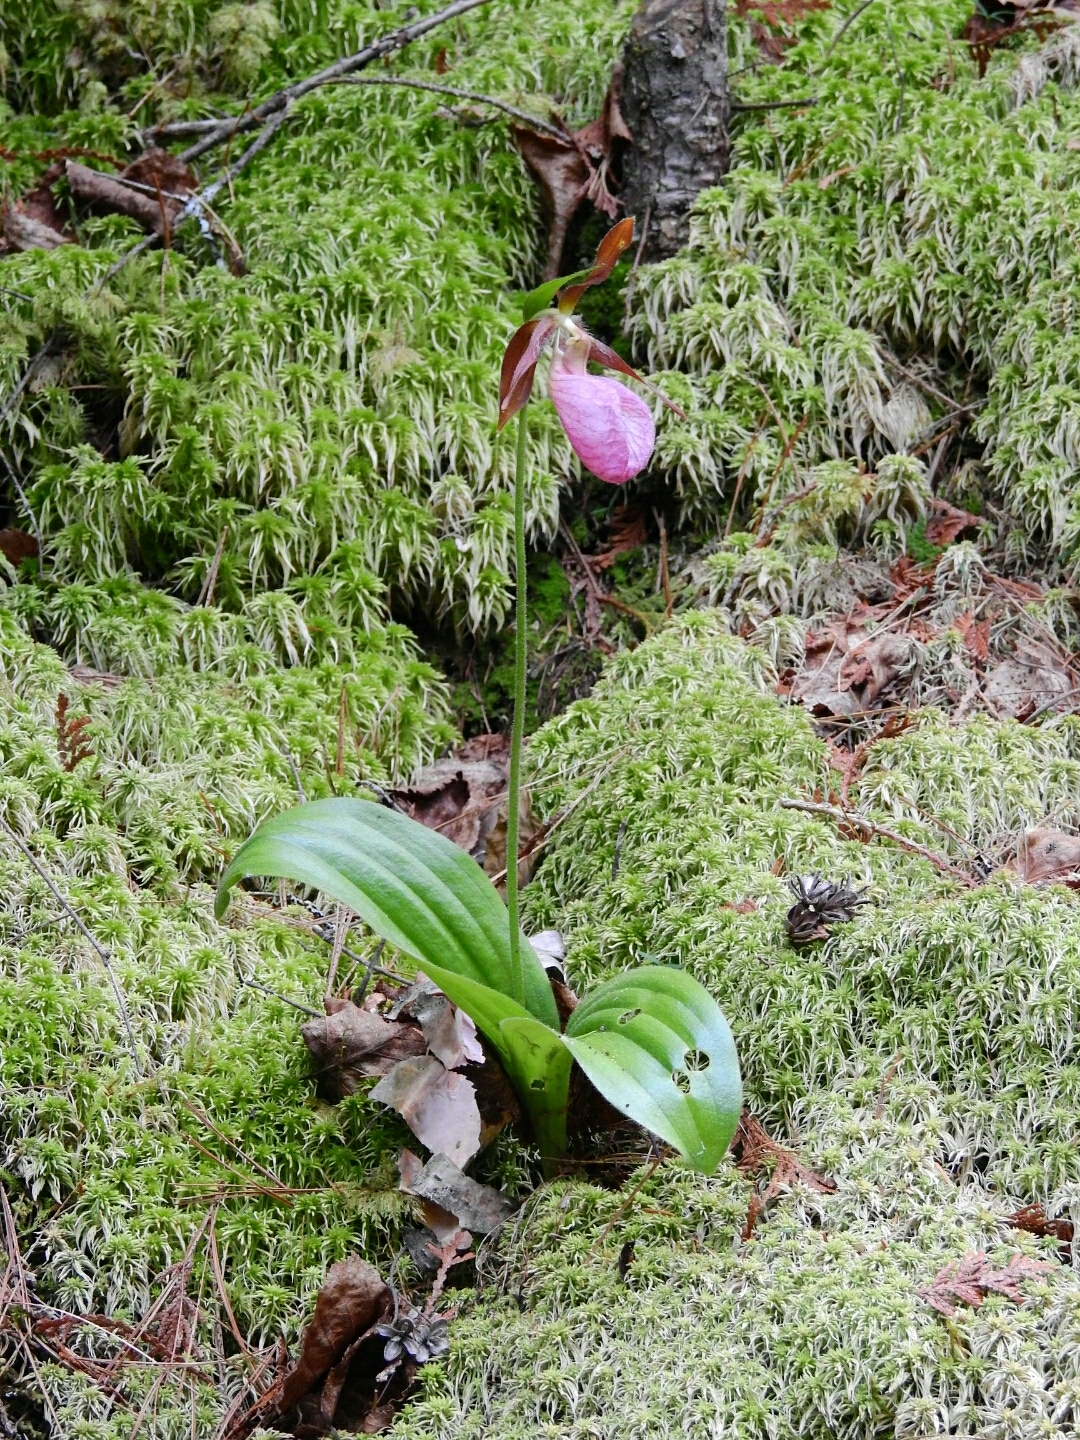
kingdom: Plantae
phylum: Tracheophyta
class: Liliopsida
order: Asparagales
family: Orchidaceae
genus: Cypripedium
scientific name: Cypripedium acaule
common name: Pink lady's-slipper
